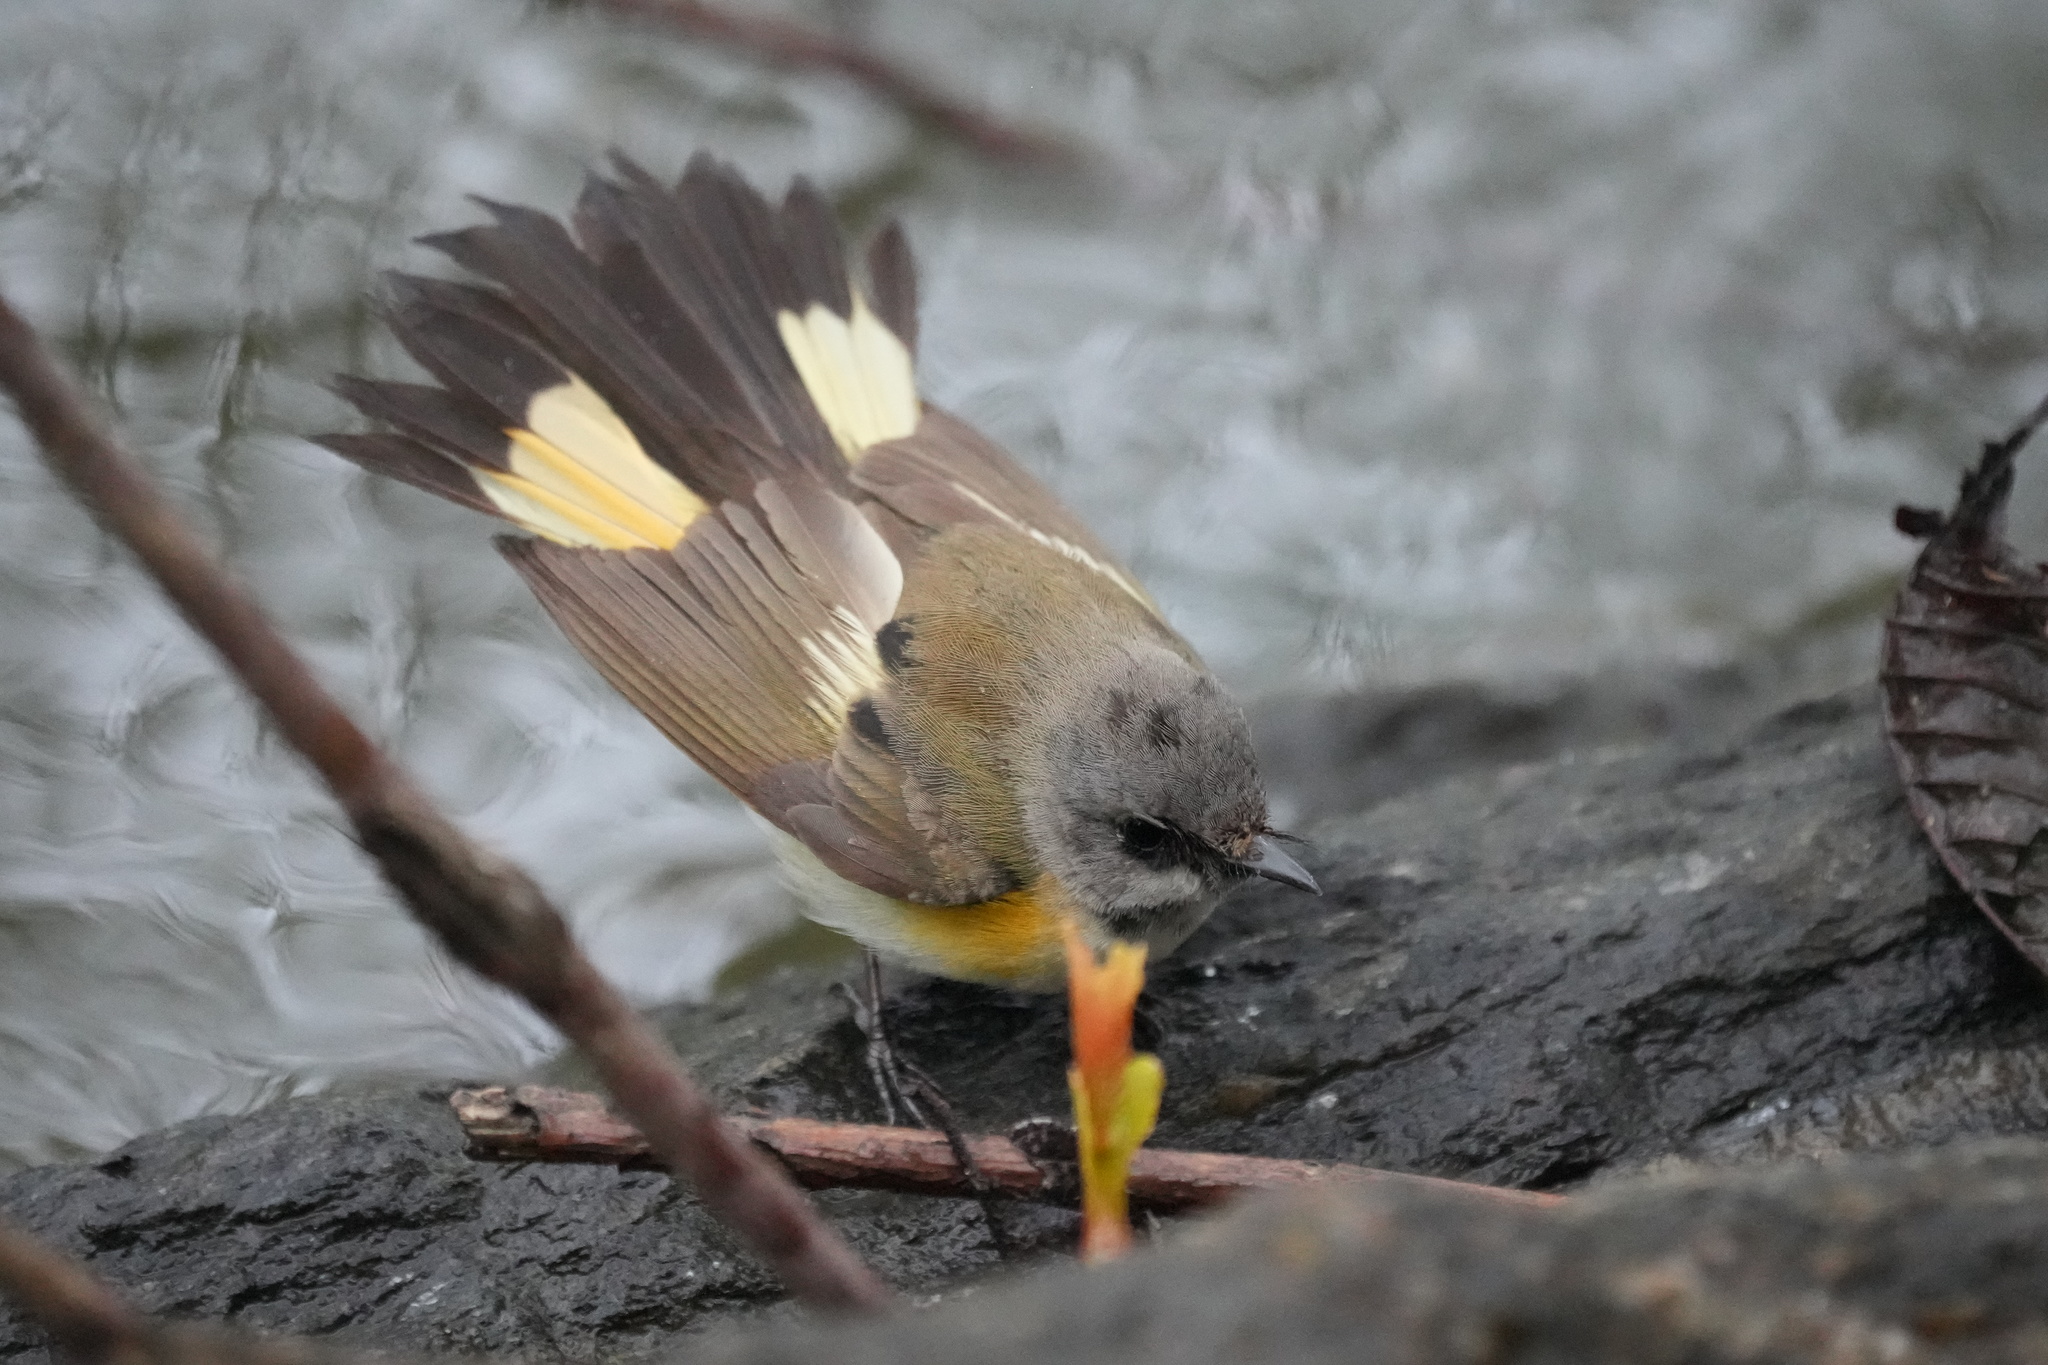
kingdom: Animalia
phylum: Chordata
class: Aves
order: Passeriformes
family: Parulidae
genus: Setophaga
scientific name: Setophaga ruticilla
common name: American redstart
